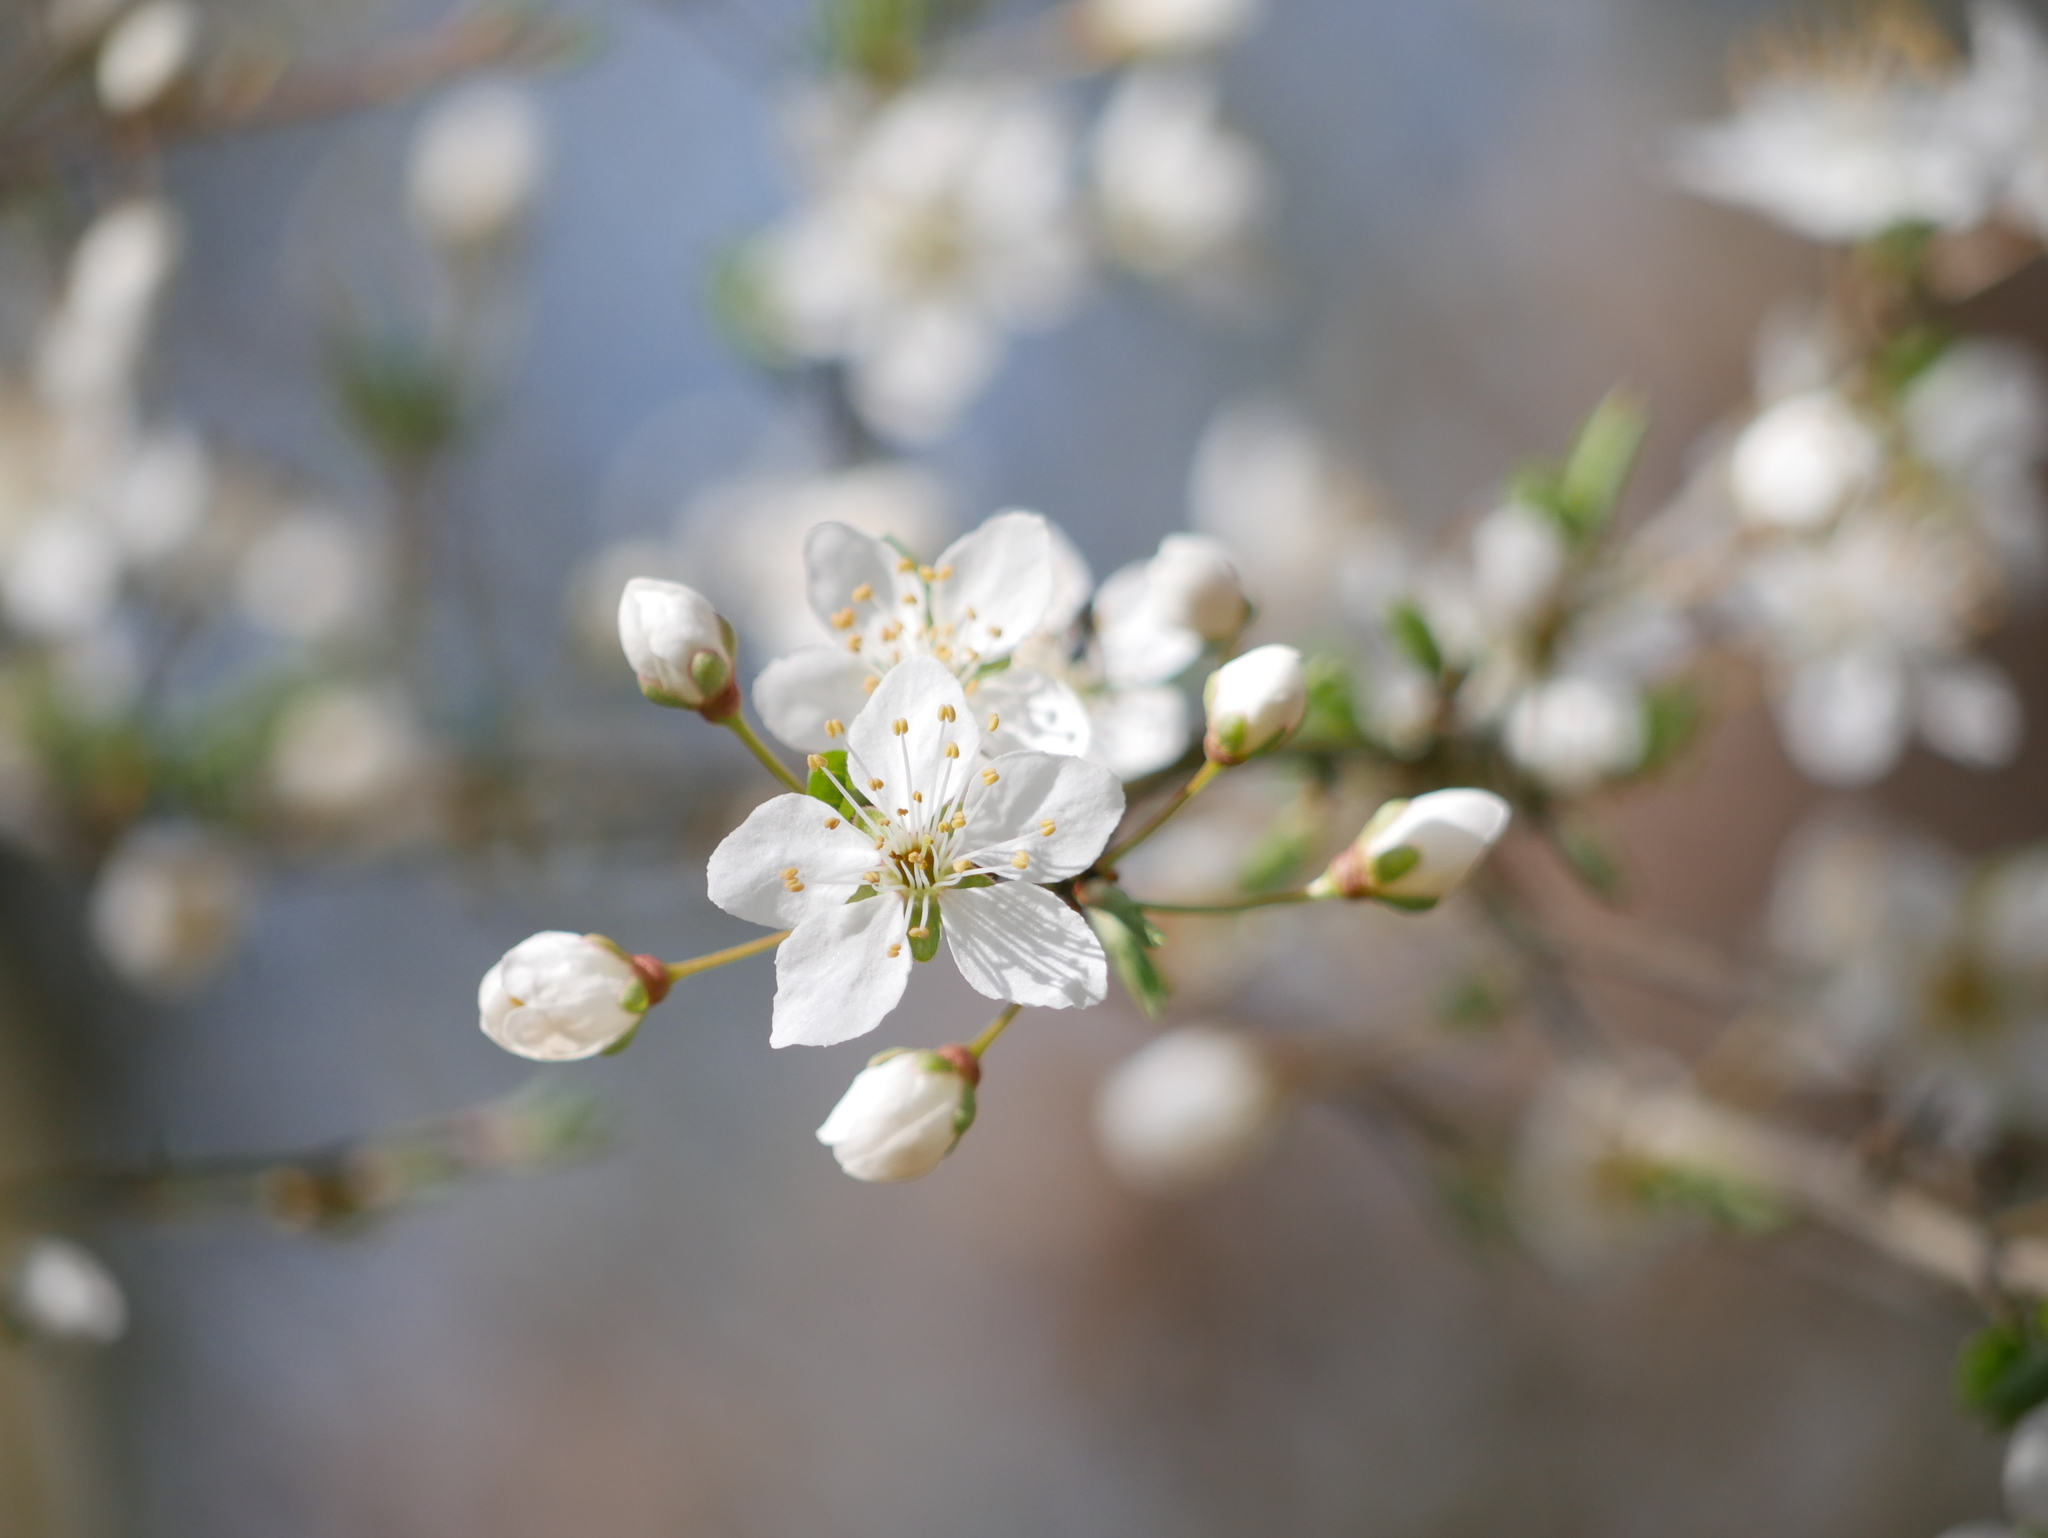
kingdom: Plantae
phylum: Tracheophyta
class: Magnoliopsida
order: Rosales
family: Rosaceae
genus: Prunus
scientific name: Prunus cerasifera
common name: Cherry plum
